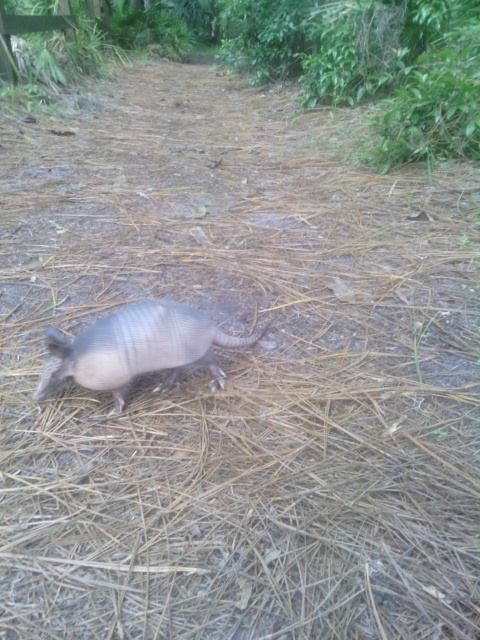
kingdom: Animalia
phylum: Chordata
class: Mammalia
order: Cingulata
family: Dasypodidae
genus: Dasypus
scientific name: Dasypus novemcinctus
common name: Nine-banded armadillo
